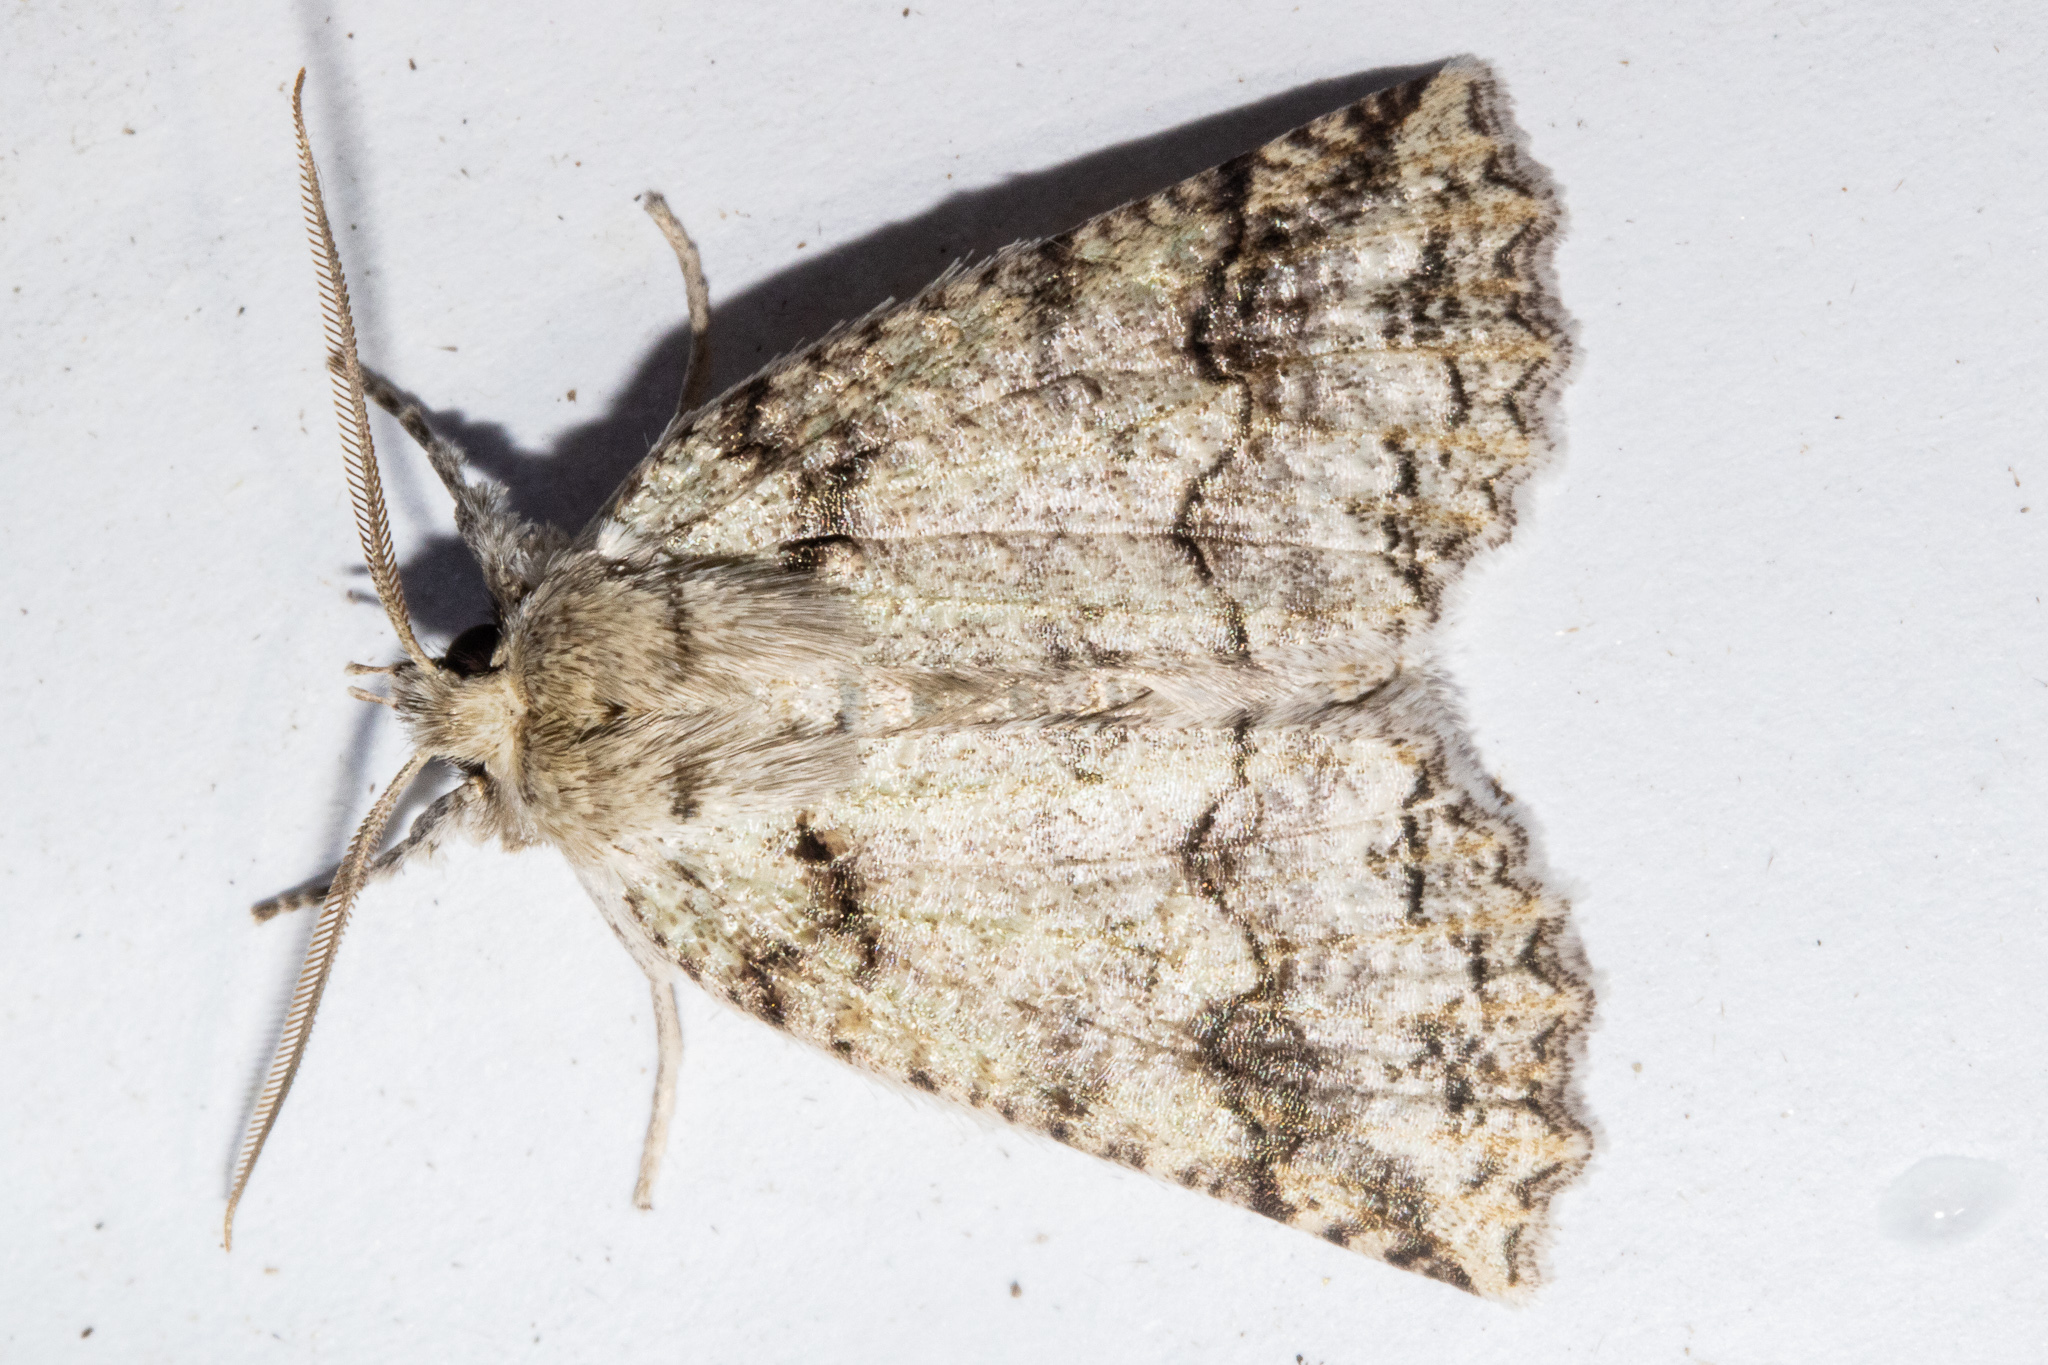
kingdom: Animalia
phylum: Arthropoda
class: Insecta
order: Lepidoptera
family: Geometridae
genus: Declana
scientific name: Declana floccosa
